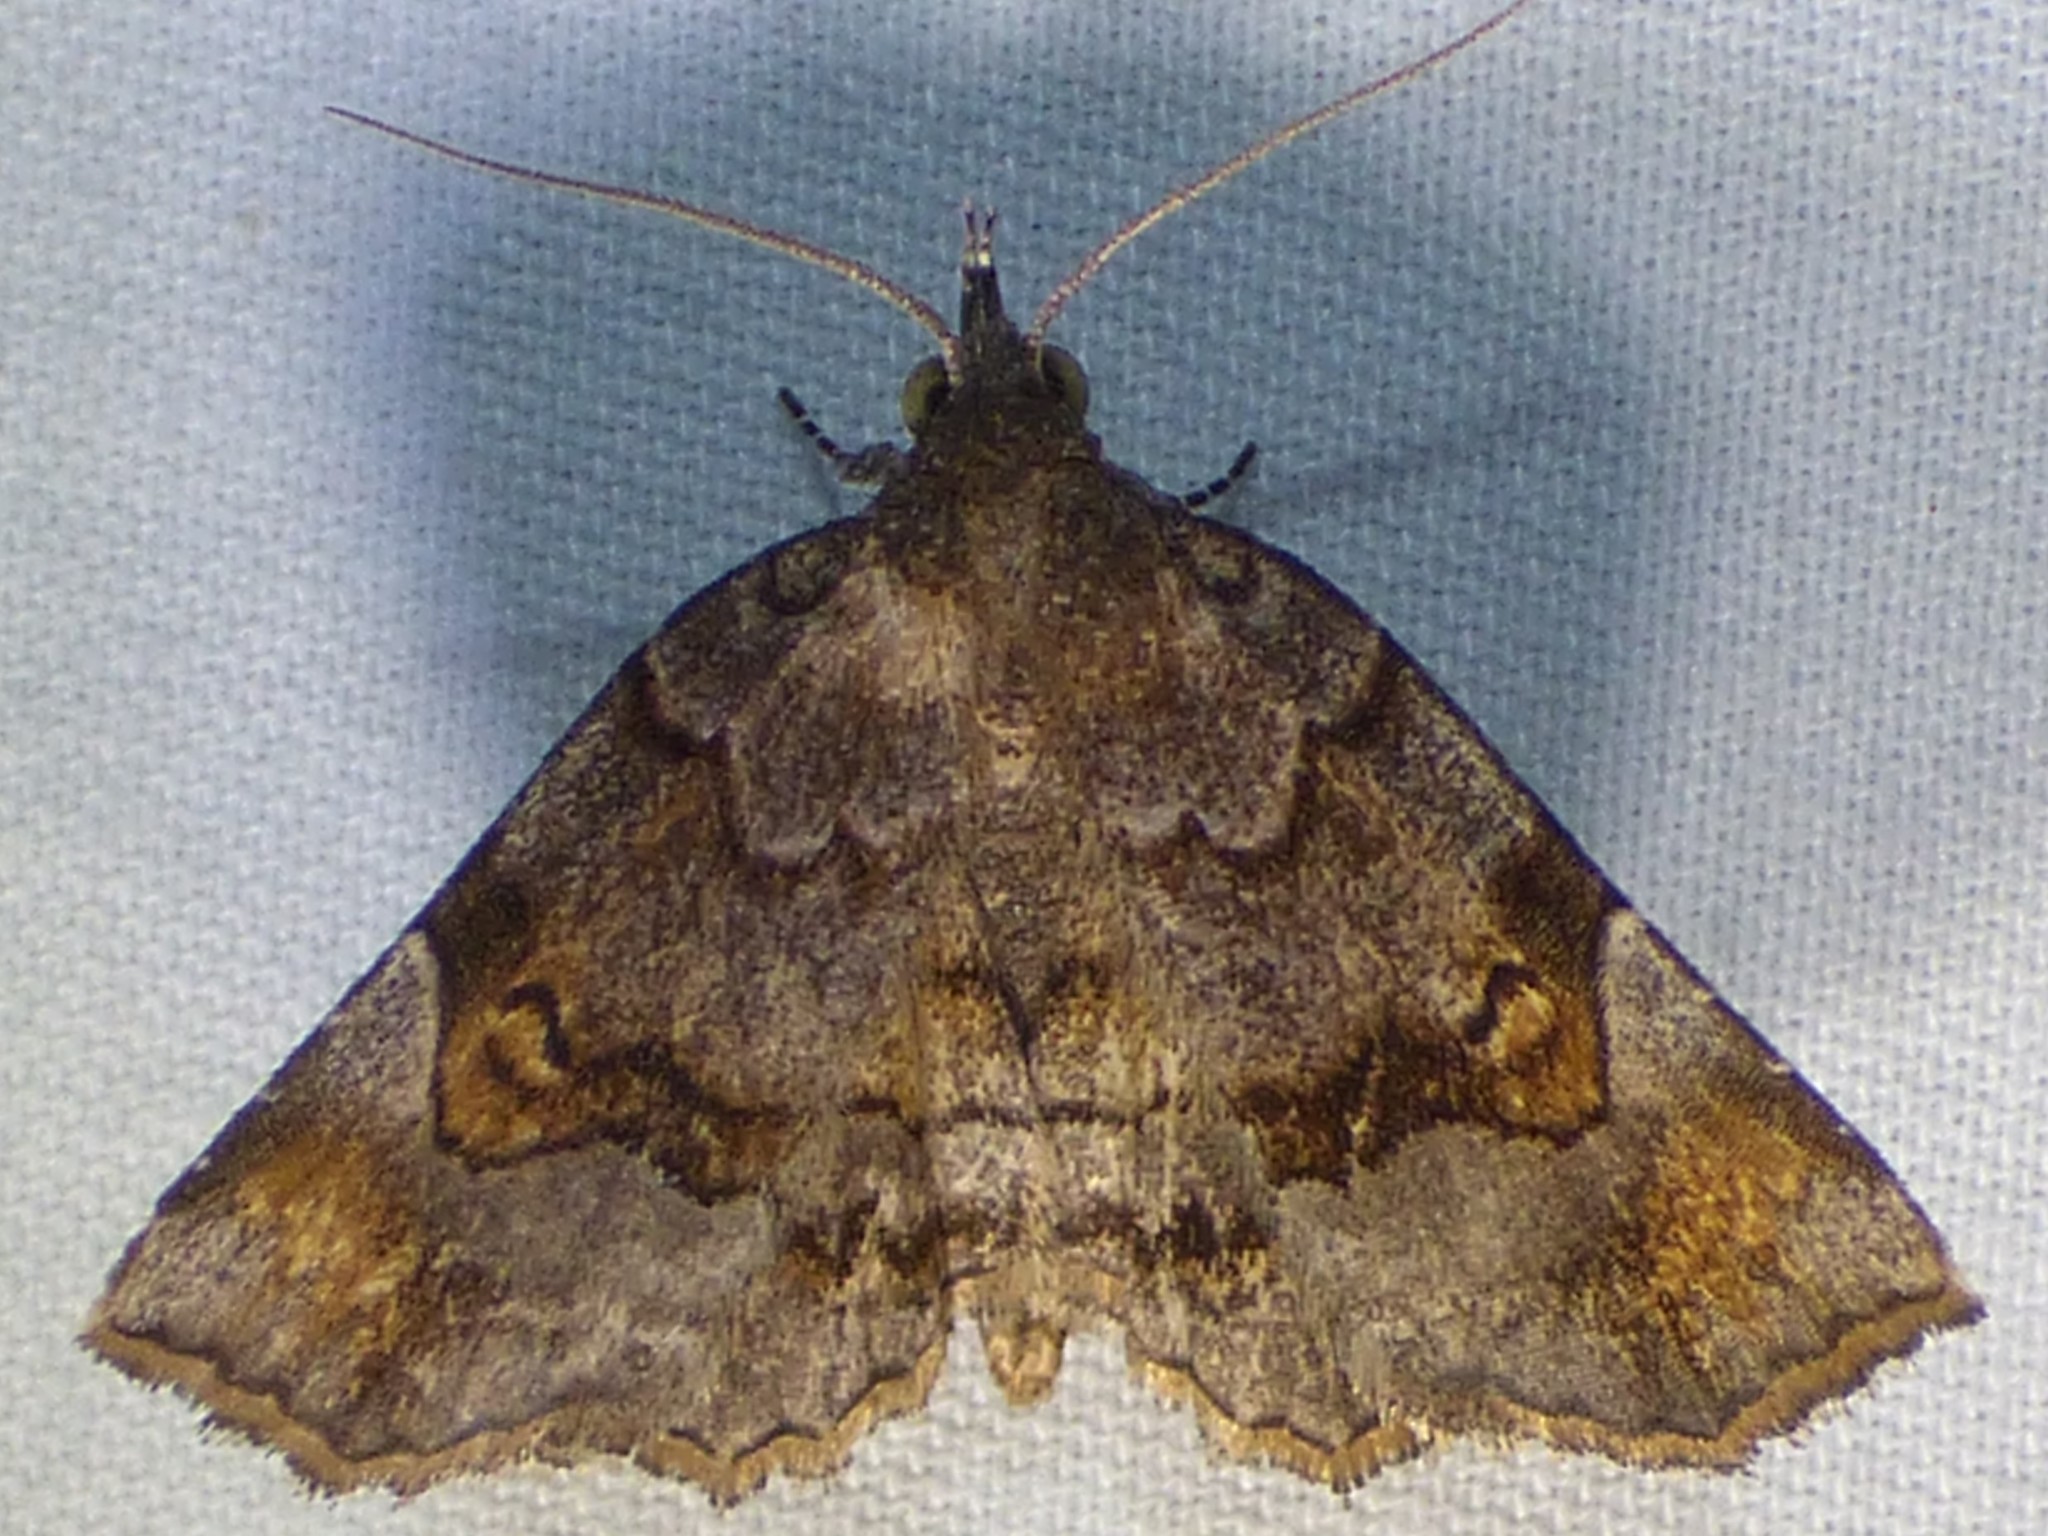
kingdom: Animalia
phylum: Arthropoda
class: Insecta
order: Lepidoptera
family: Erebidae
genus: Pangrapta
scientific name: Pangrapta decoralis
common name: Decorated owlet
